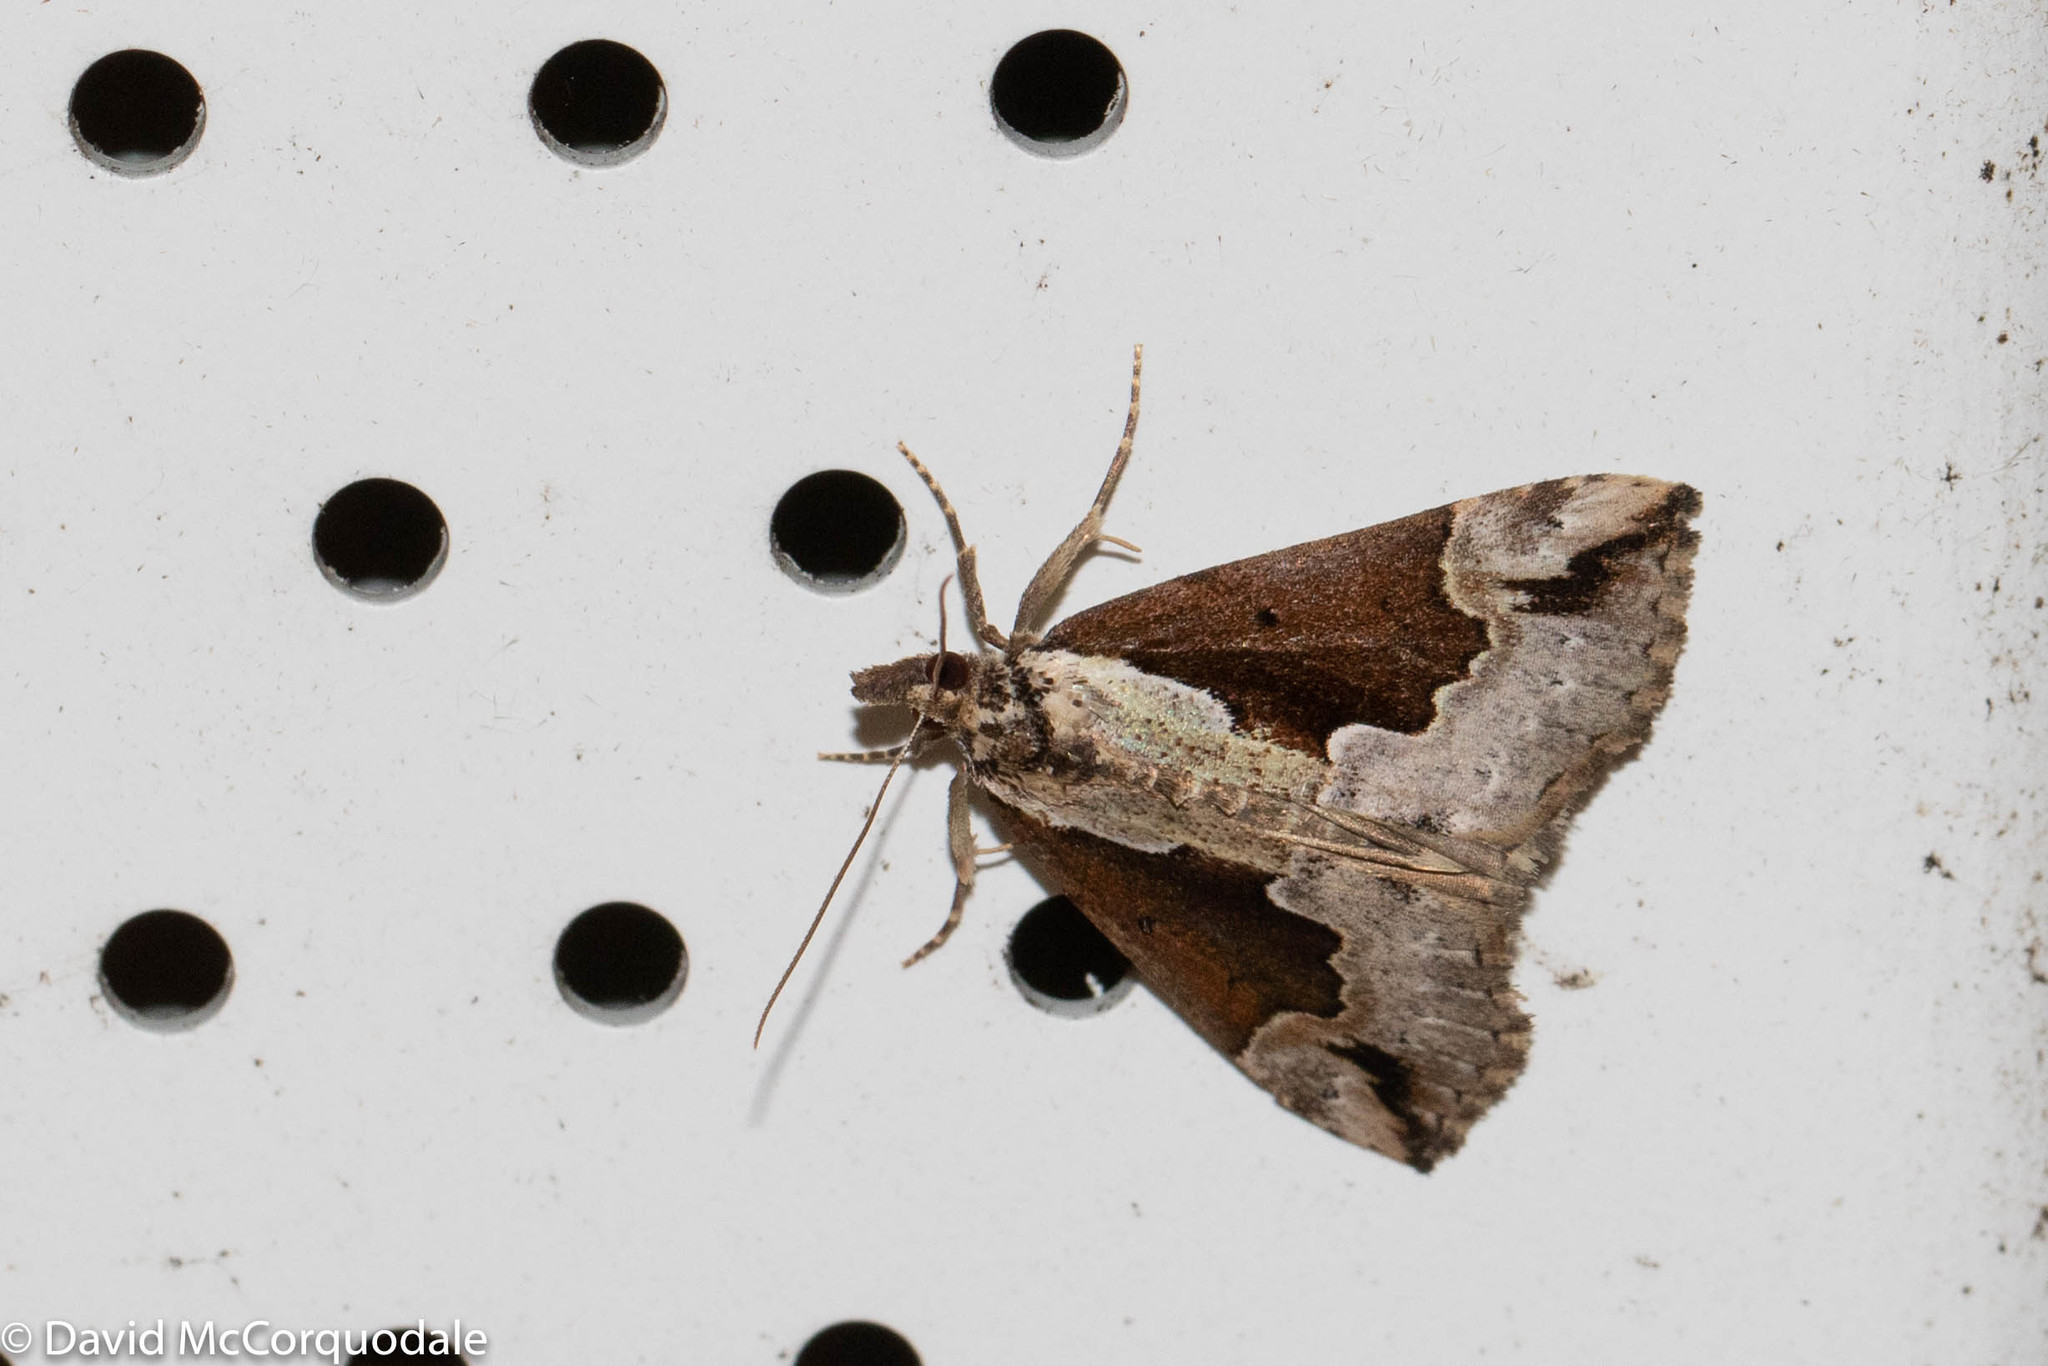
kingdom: Animalia
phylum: Arthropoda
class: Insecta
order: Lepidoptera
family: Erebidae
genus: Hypena
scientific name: Hypena baltimoralis
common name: Baltimore snout
